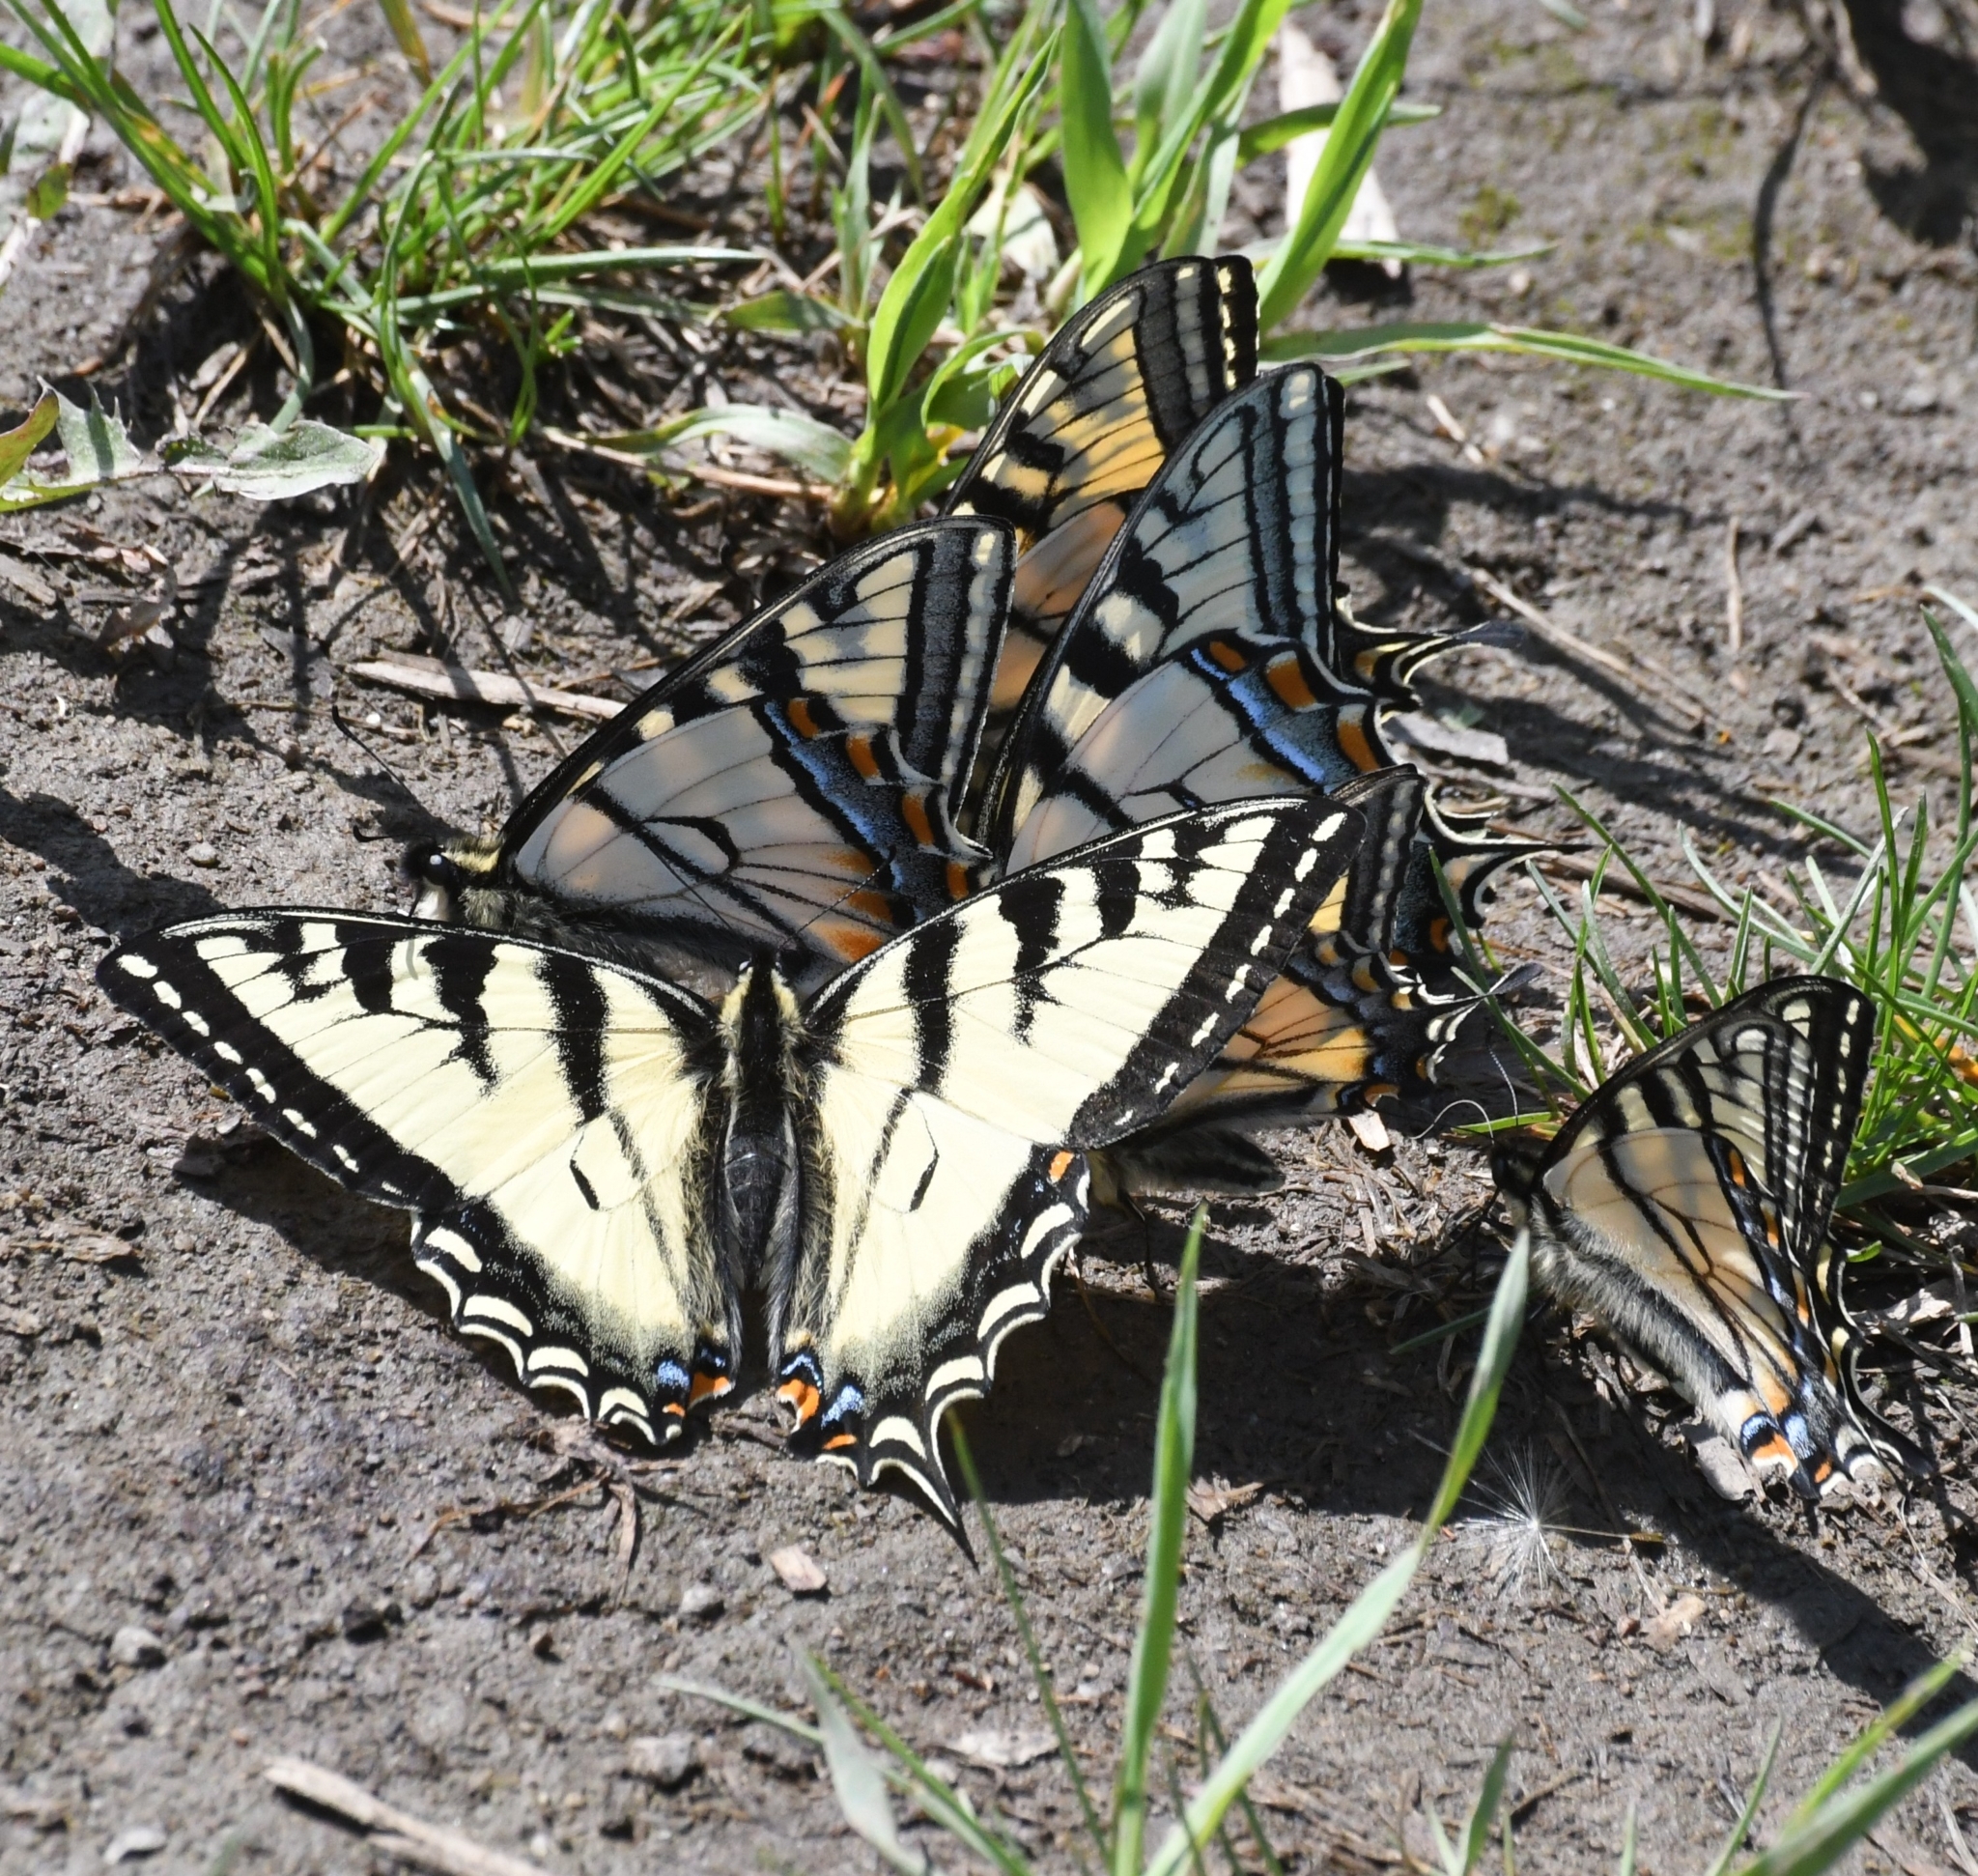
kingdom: Animalia
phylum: Arthropoda
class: Insecta
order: Lepidoptera
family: Papilionidae
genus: Papilio
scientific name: Papilio canadensis
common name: Canadian tiger swallowtail
